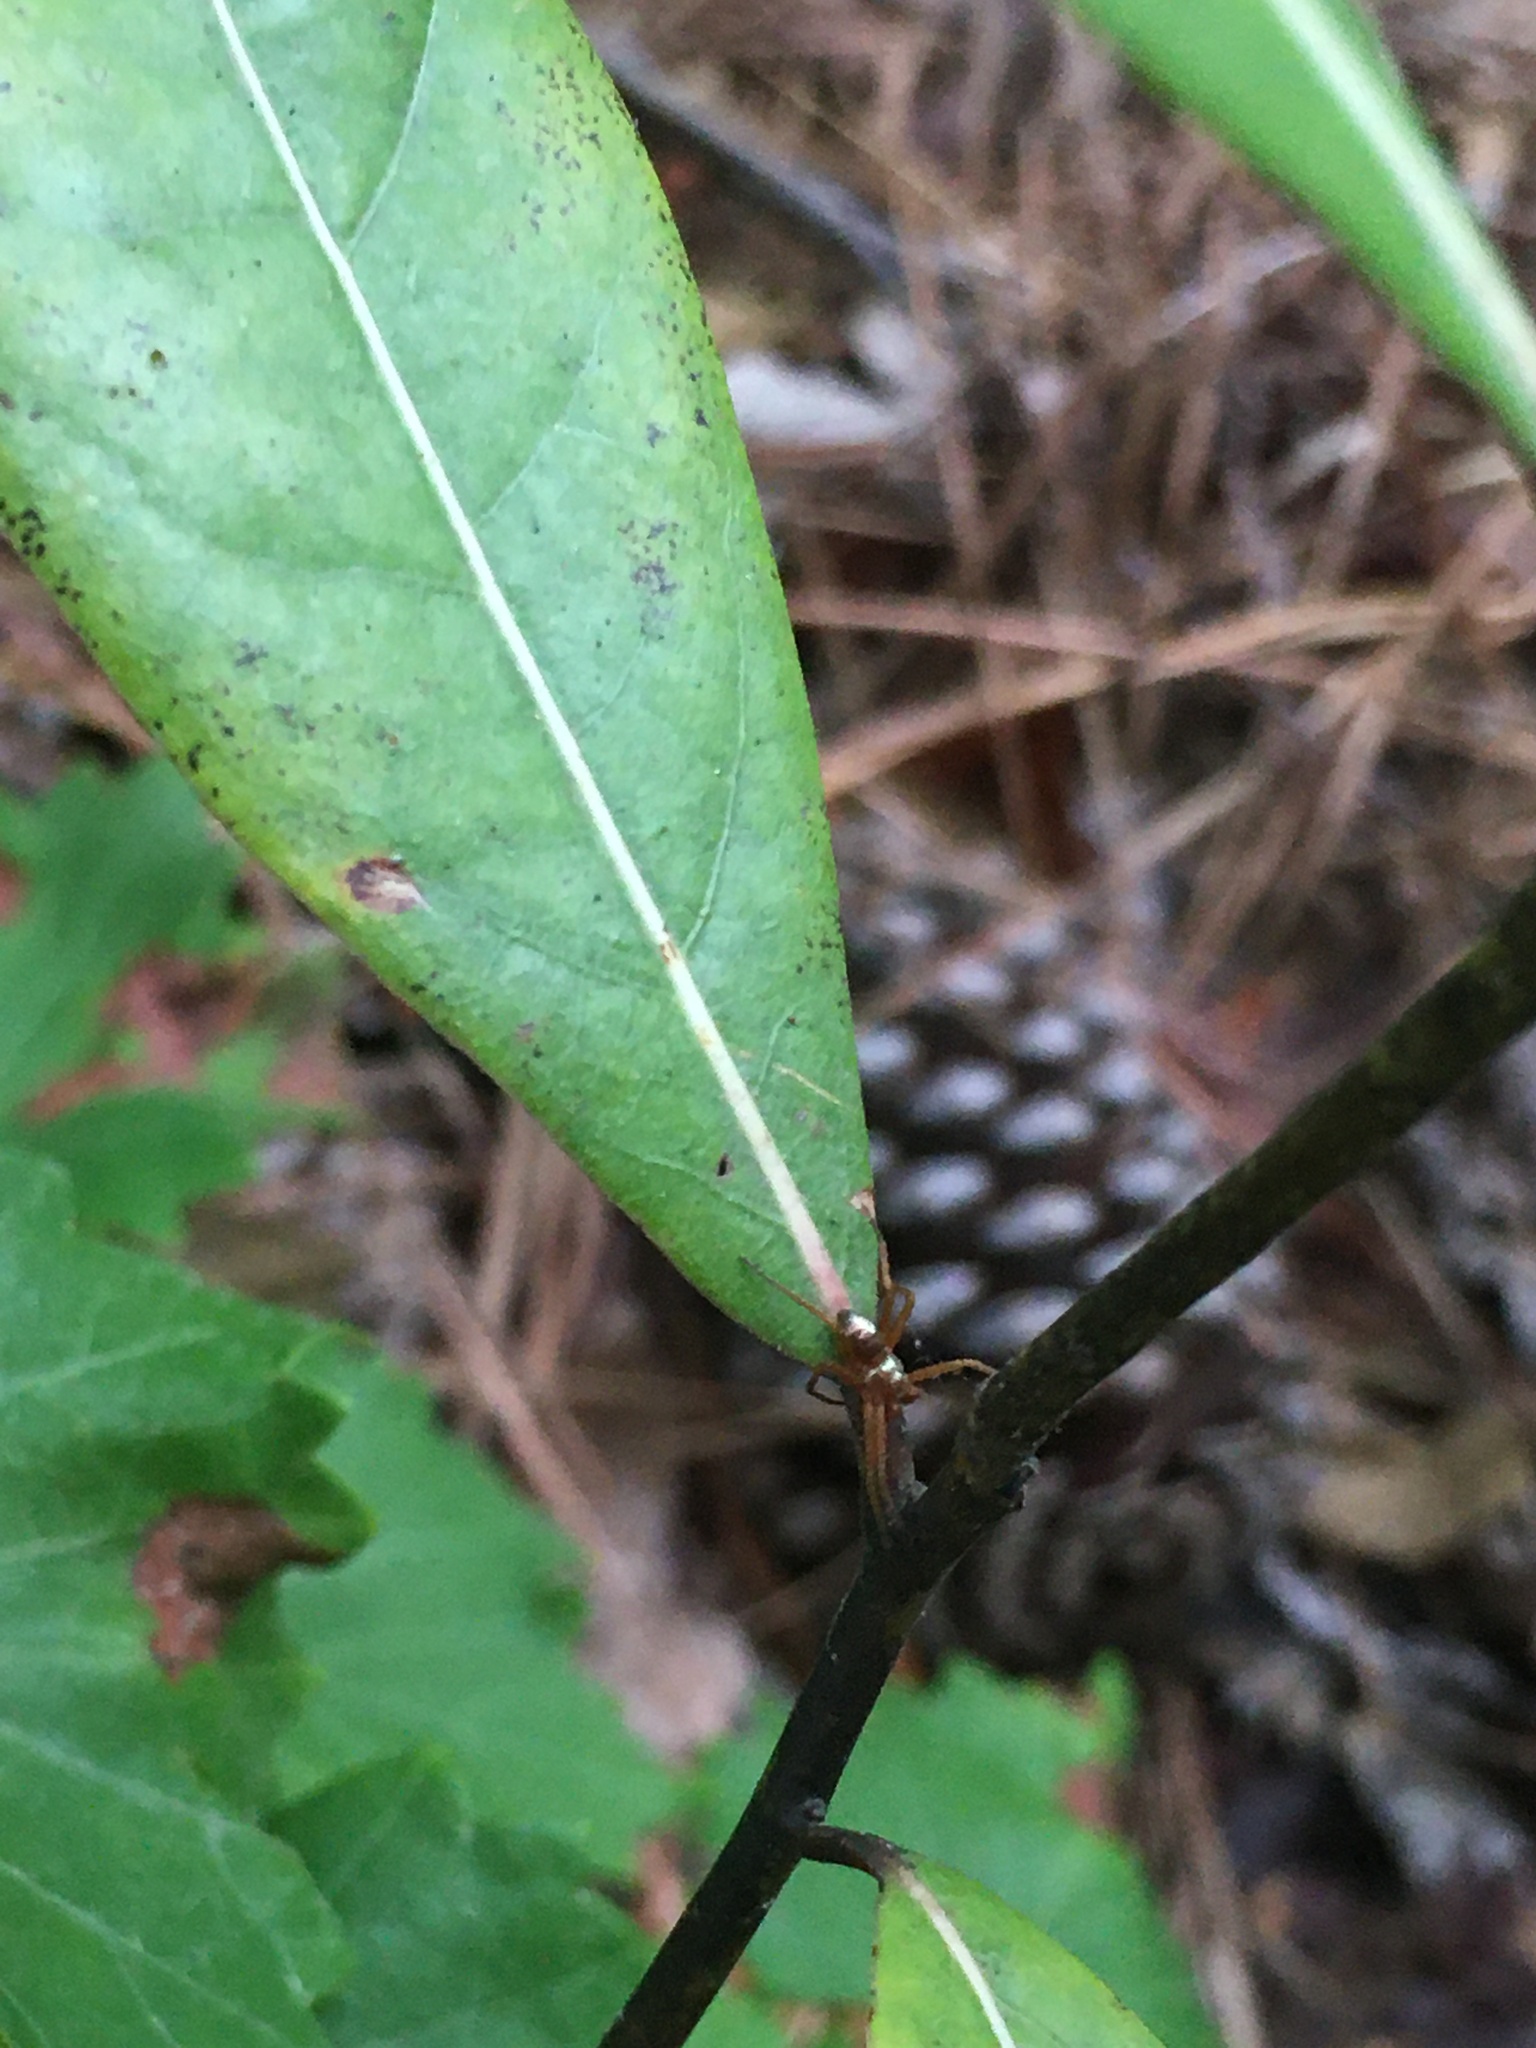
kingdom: Animalia
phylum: Arthropoda
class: Arachnida
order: Araneae
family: Philodromidae
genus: Philodromus
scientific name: Philodromus marxi
